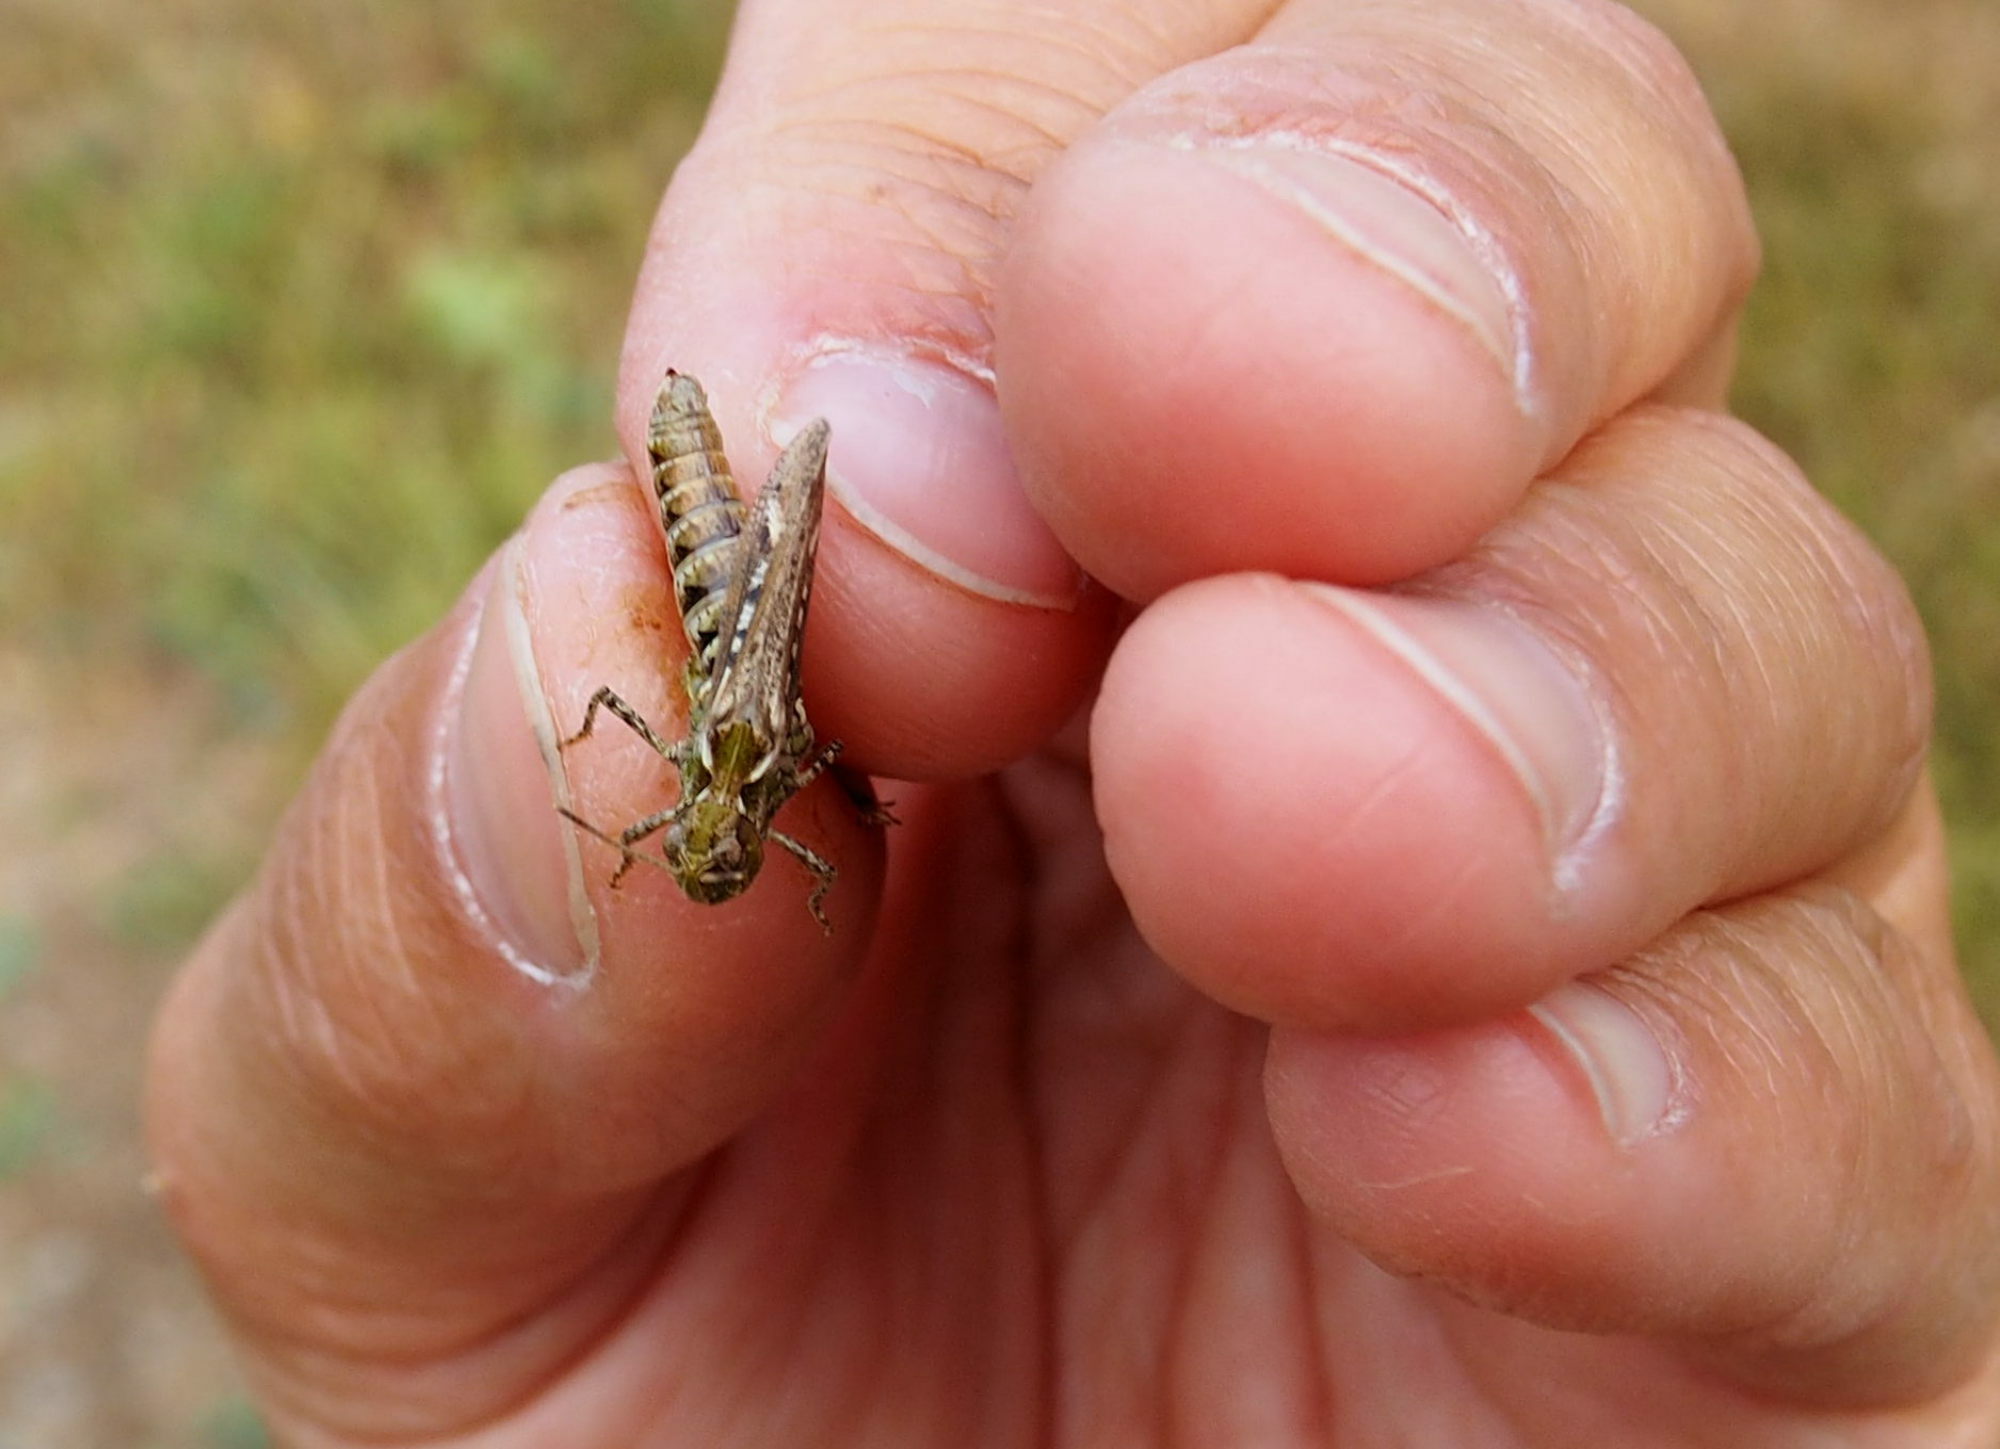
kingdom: Animalia
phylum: Arthropoda
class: Insecta
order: Orthoptera
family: Acrididae
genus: Myrmeleotettix
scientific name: Myrmeleotettix maculatus
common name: Mottled grasshopper
